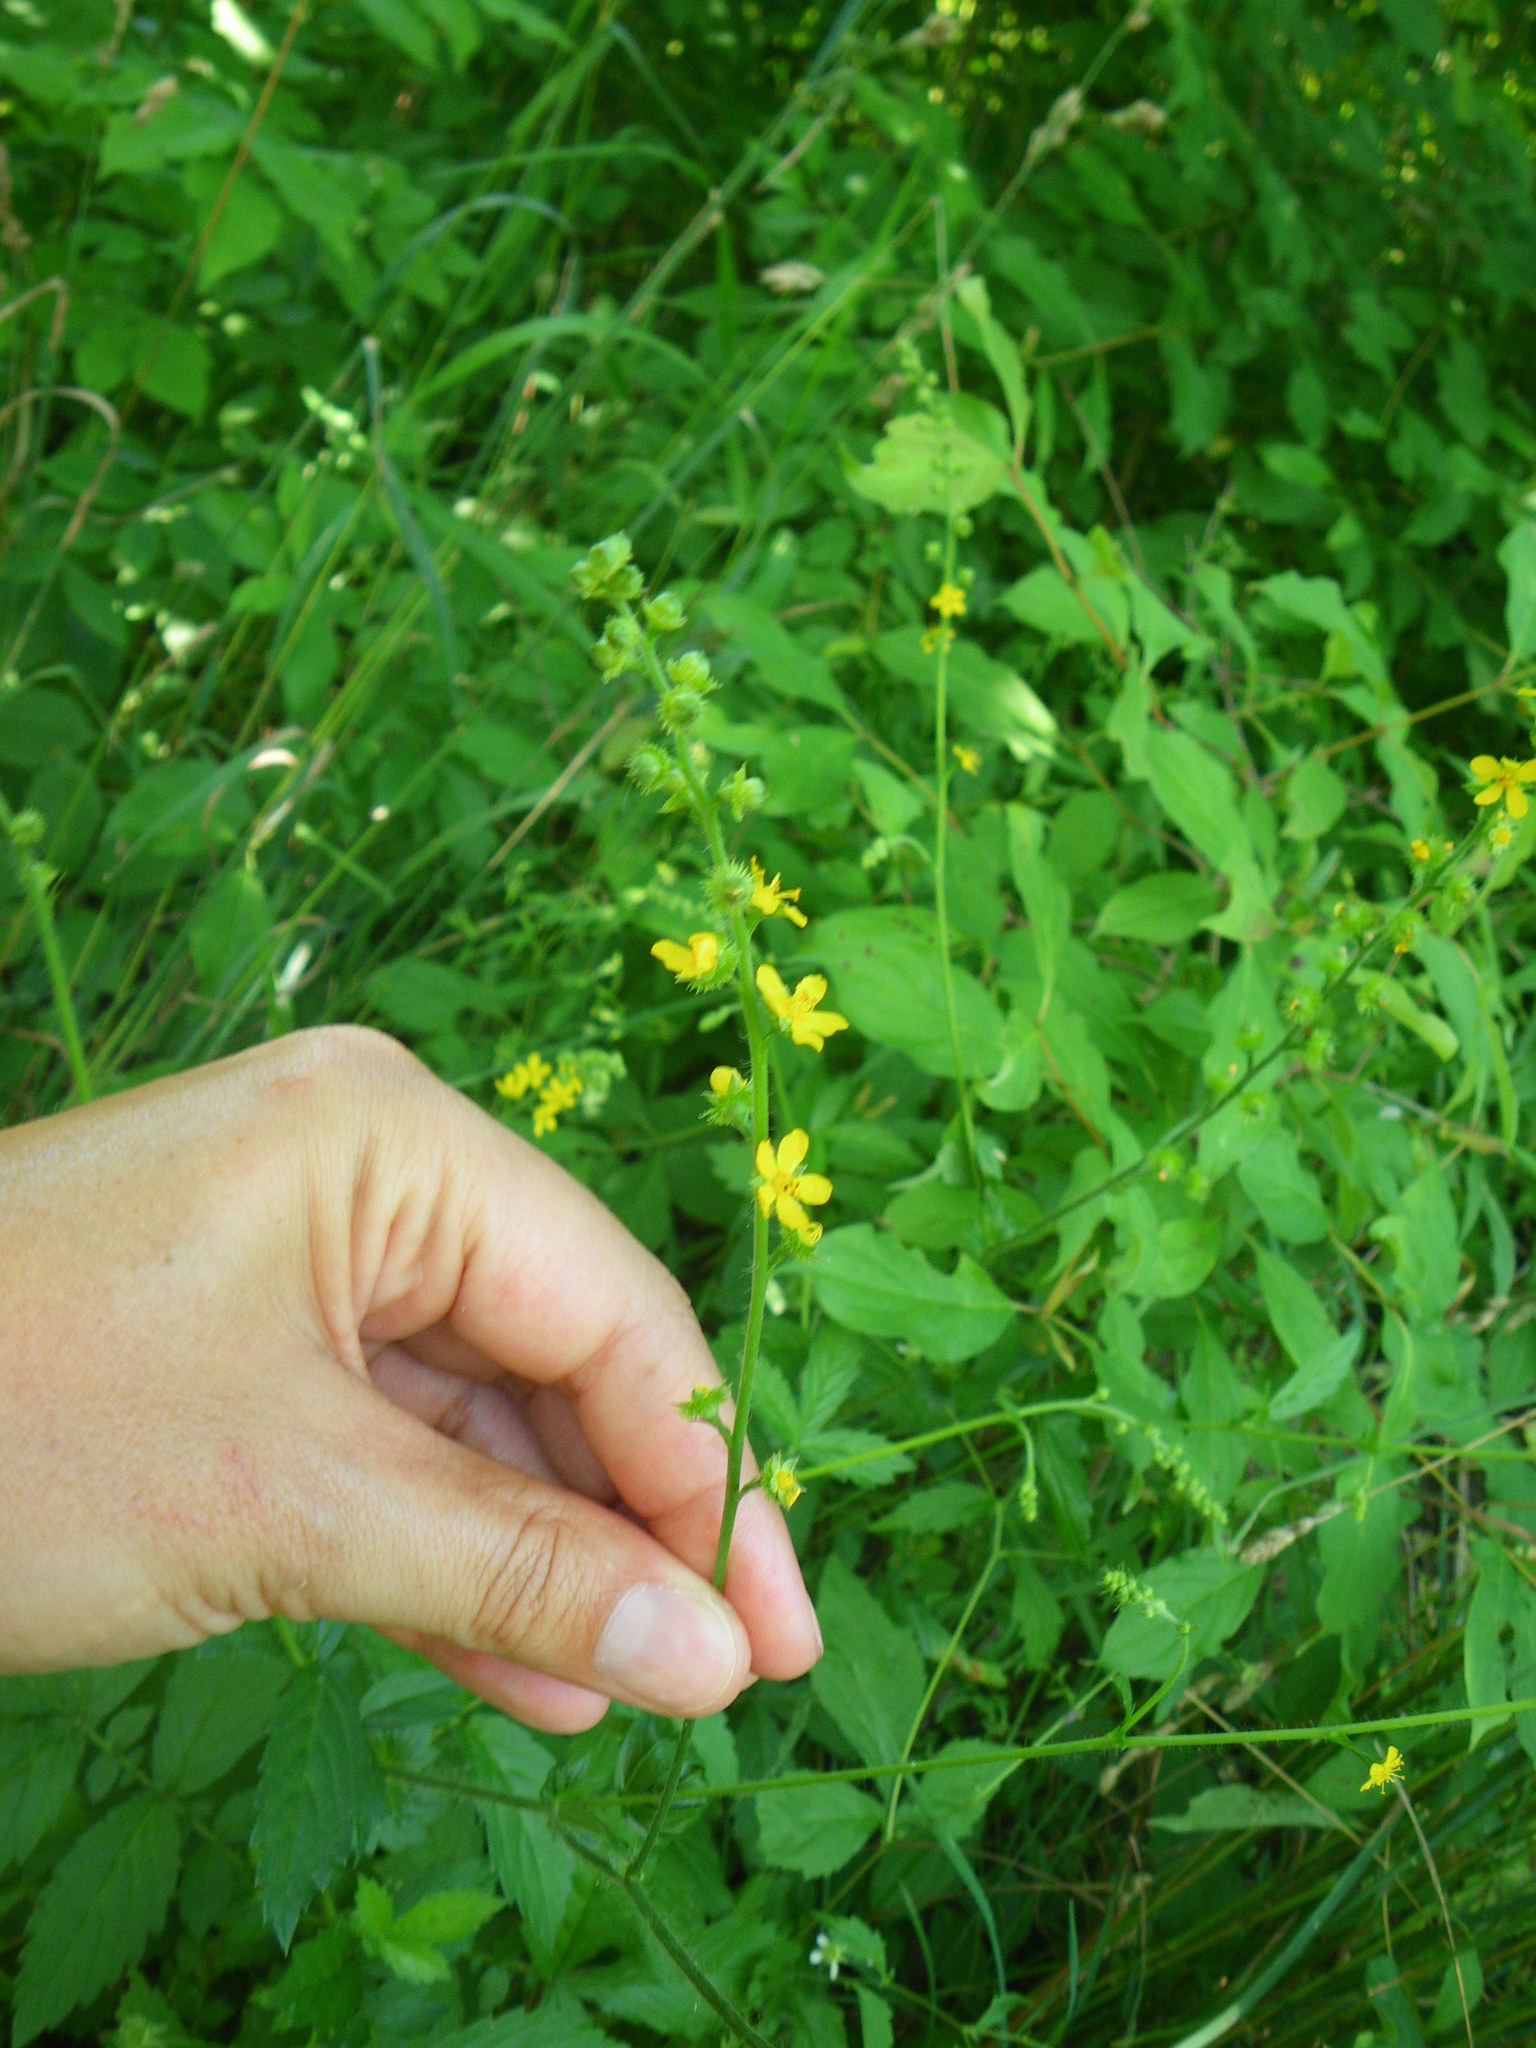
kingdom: Plantae
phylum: Tracheophyta
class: Magnoliopsida
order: Rosales
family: Rosaceae
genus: Agrimonia
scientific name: Agrimonia gryposepala
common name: Common agrimony
